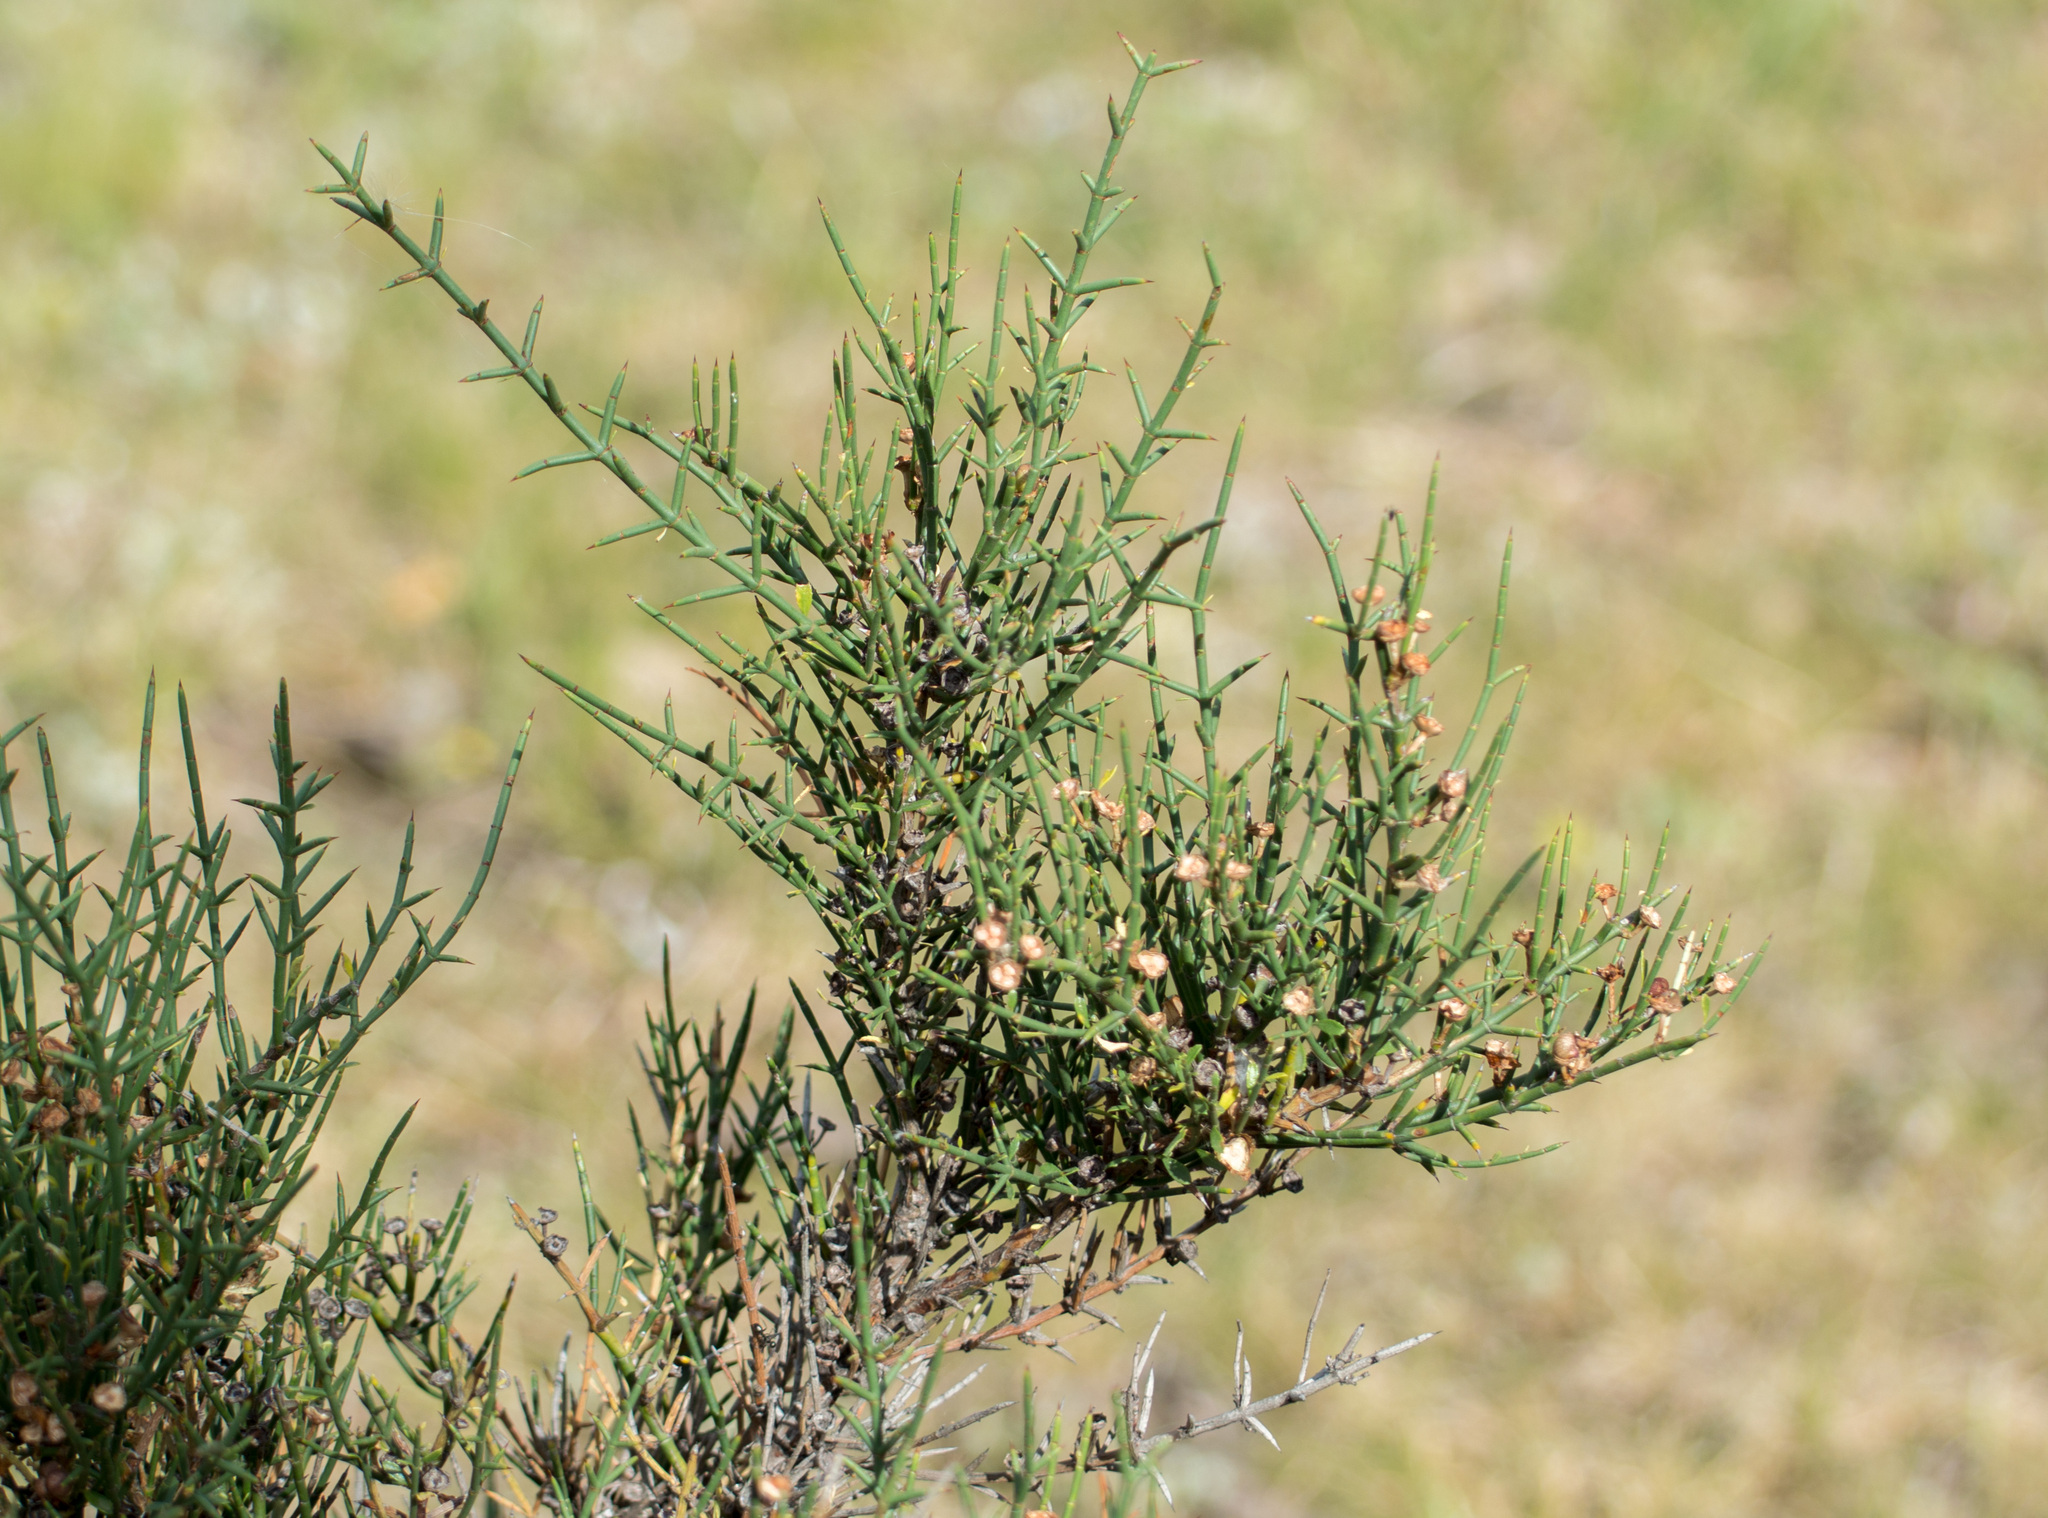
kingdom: Plantae
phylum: Tracheophyta
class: Magnoliopsida
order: Rosales
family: Rhamnaceae
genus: Discaria
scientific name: Discaria americana
